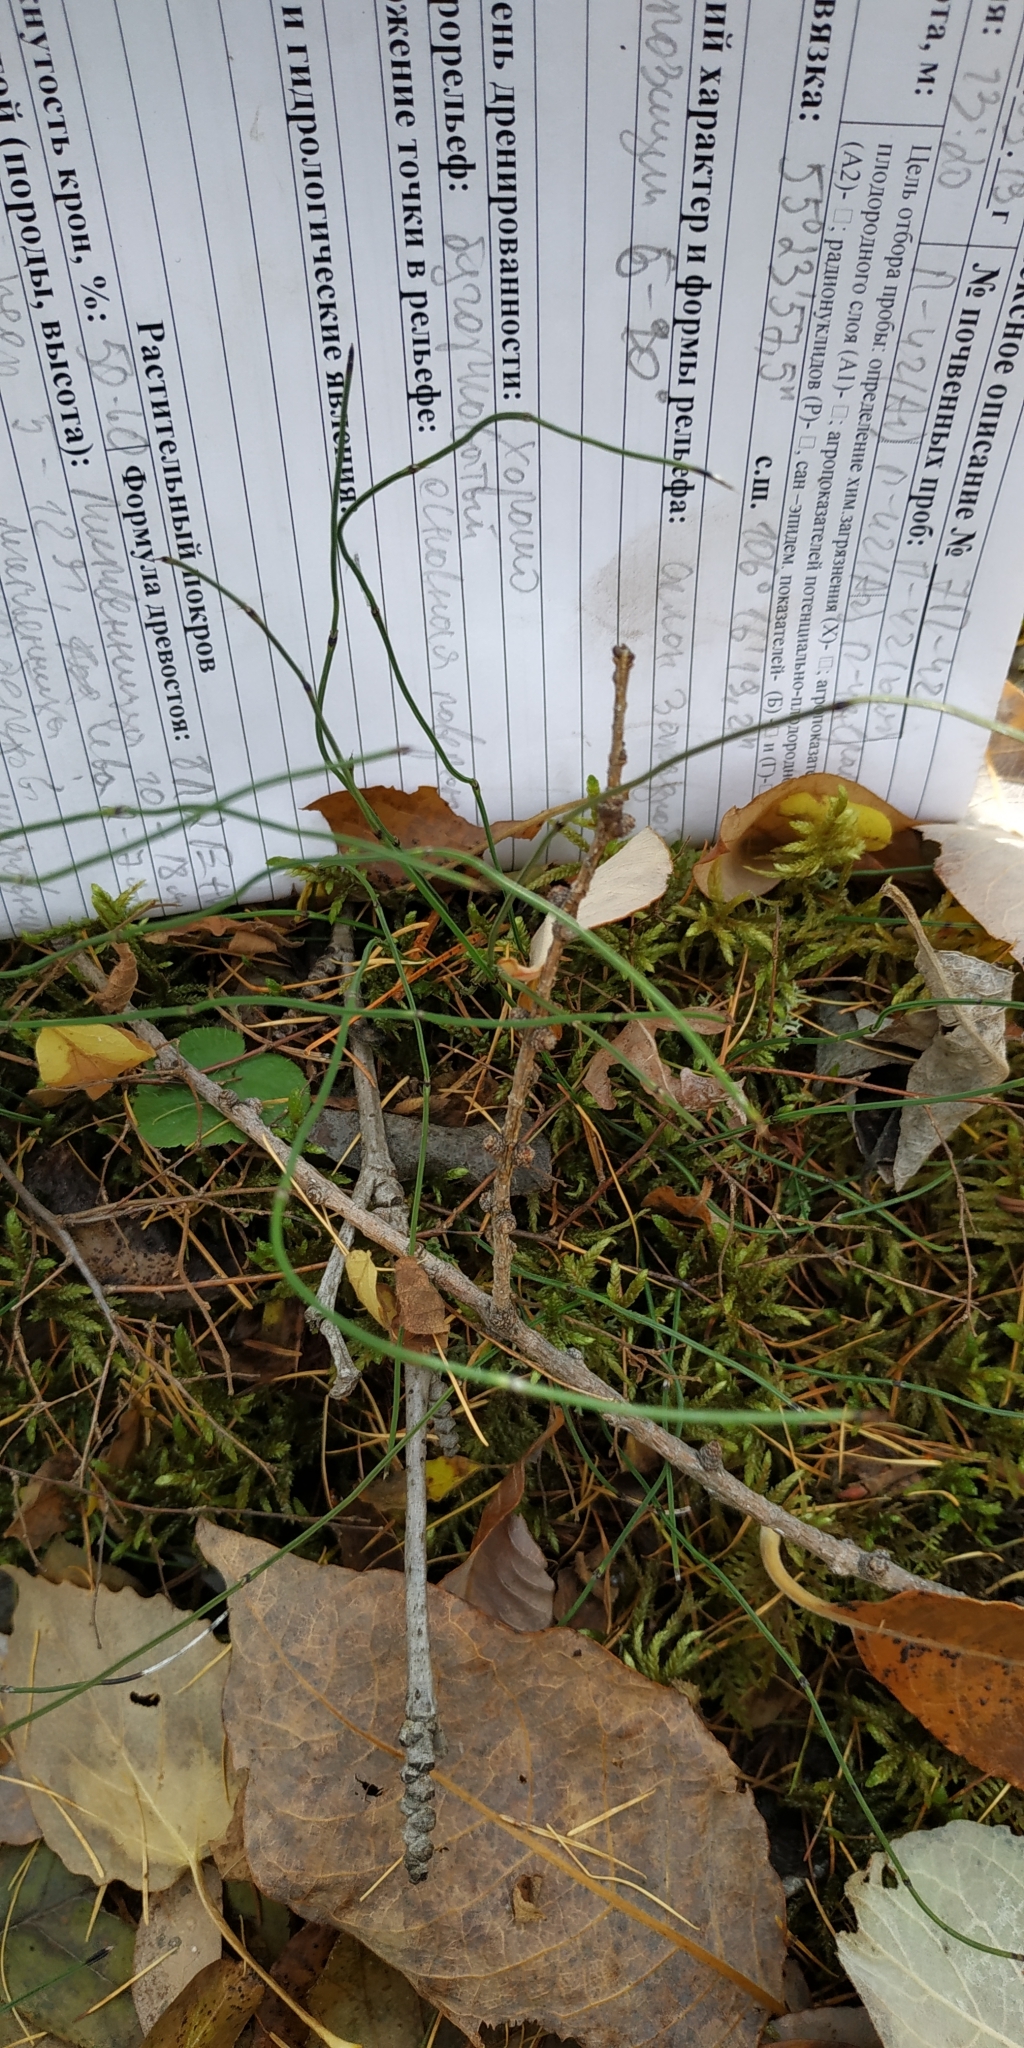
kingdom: Plantae
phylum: Tracheophyta
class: Polypodiopsida
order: Equisetales
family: Equisetaceae
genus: Equisetum
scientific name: Equisetum scirpoides
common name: Delicate horsetail
